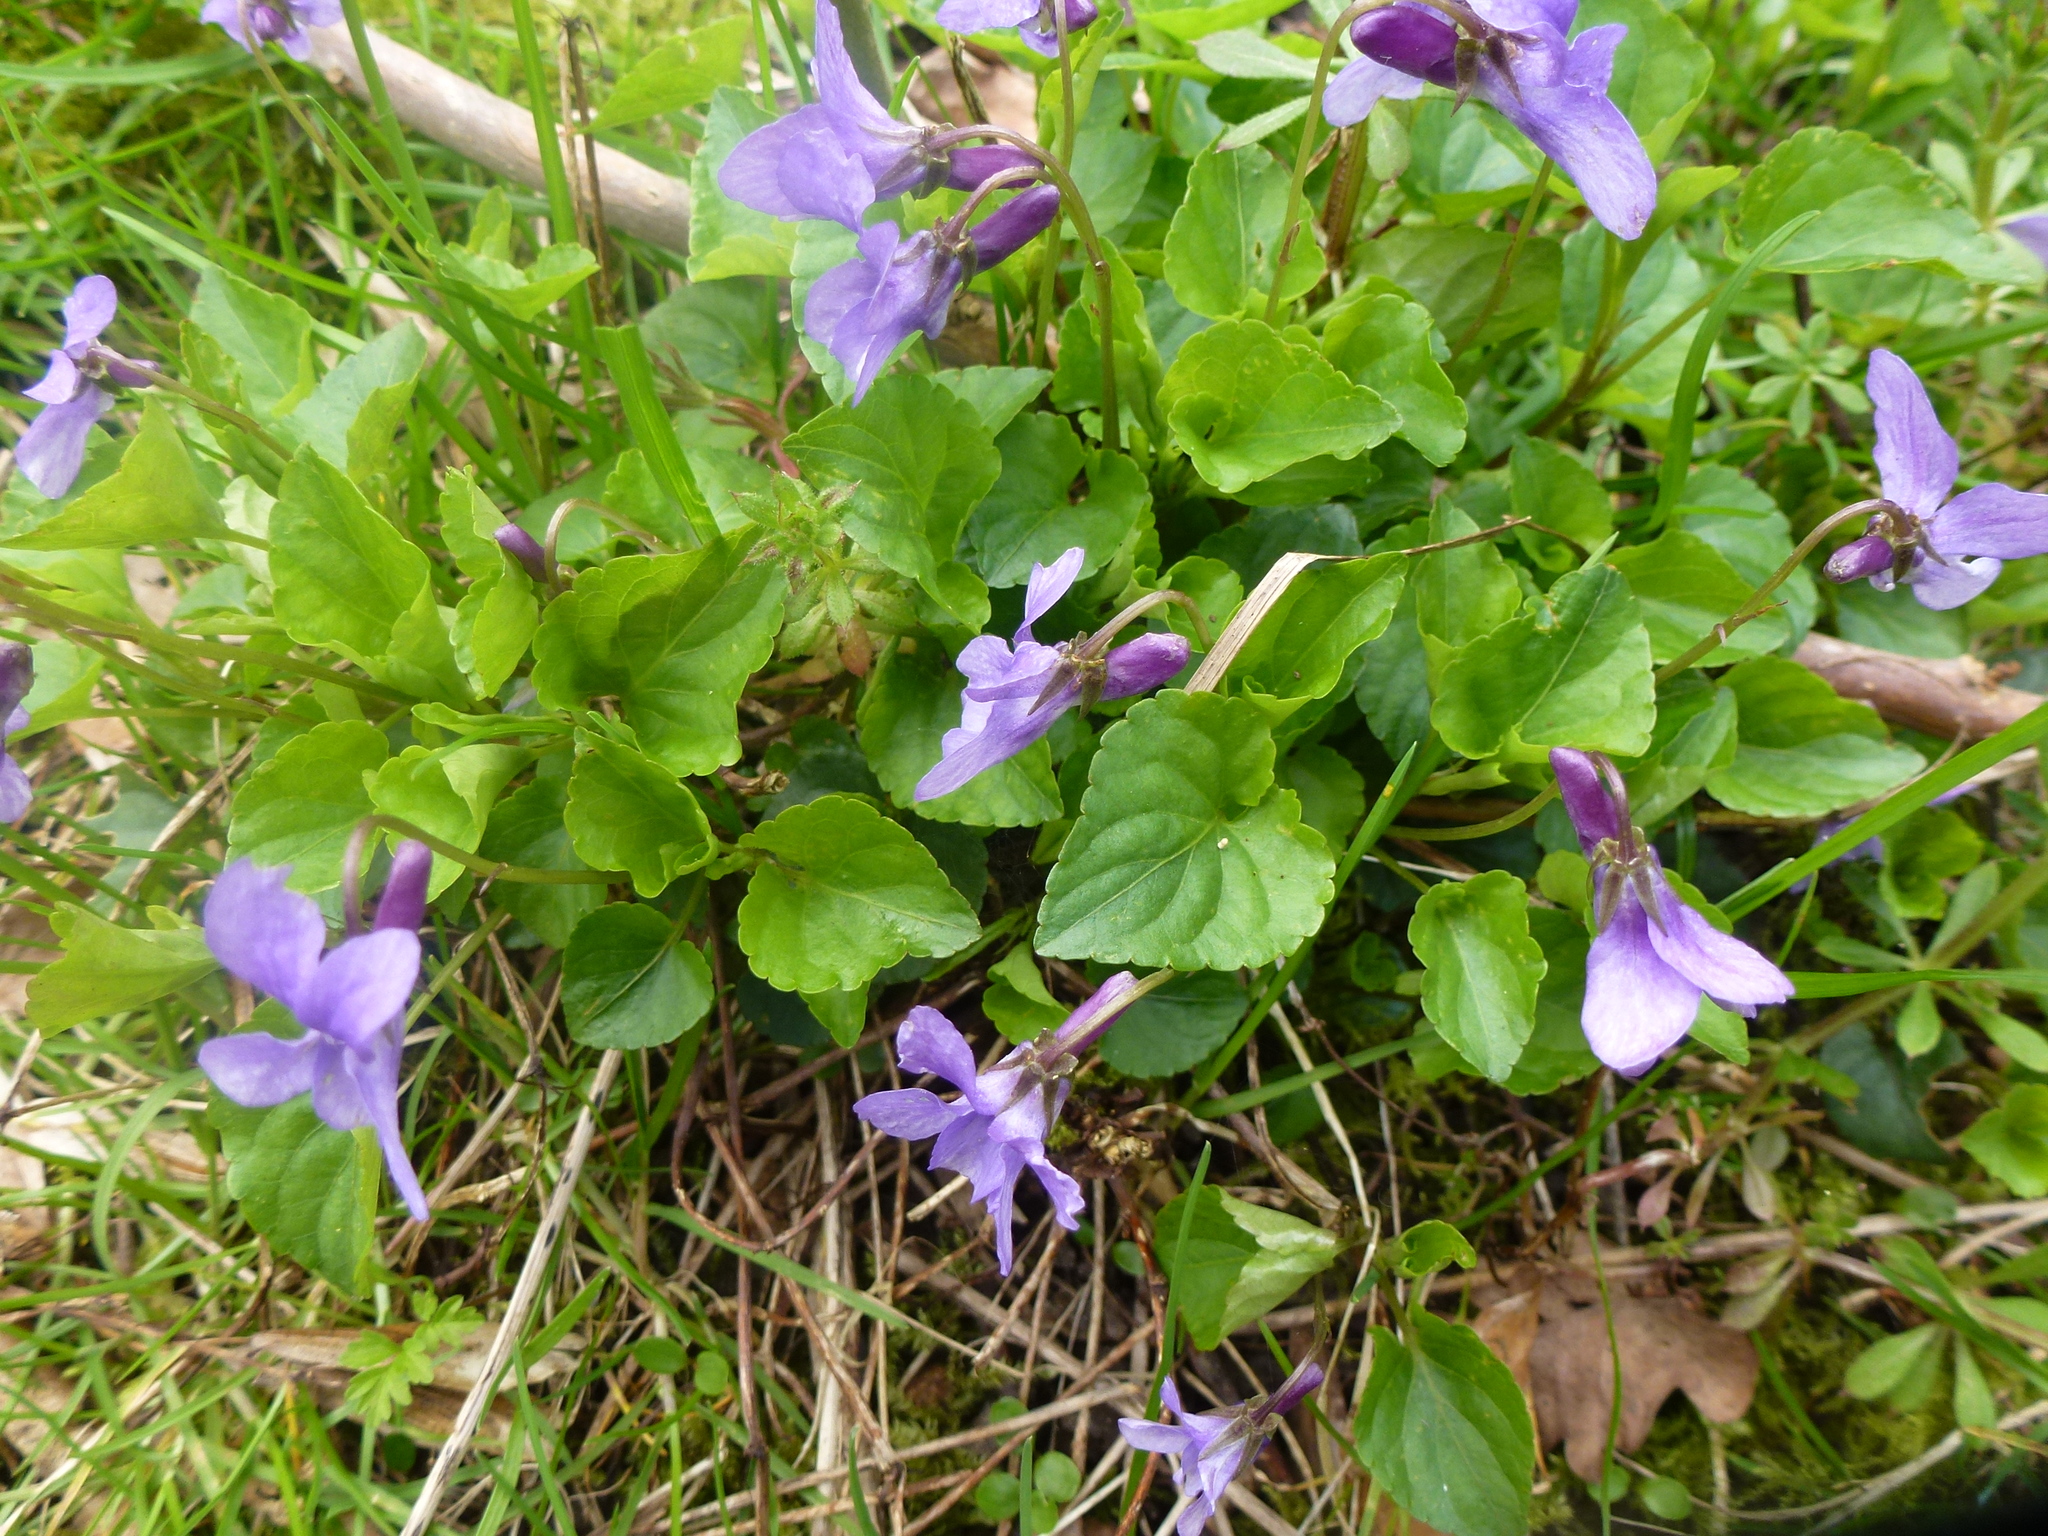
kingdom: Plantae
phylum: Tracheophyta
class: Magnoliopsida
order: Malpighiales
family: Violaceae
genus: Viola
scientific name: Viola reichenbachiana
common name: Early dog-violet
